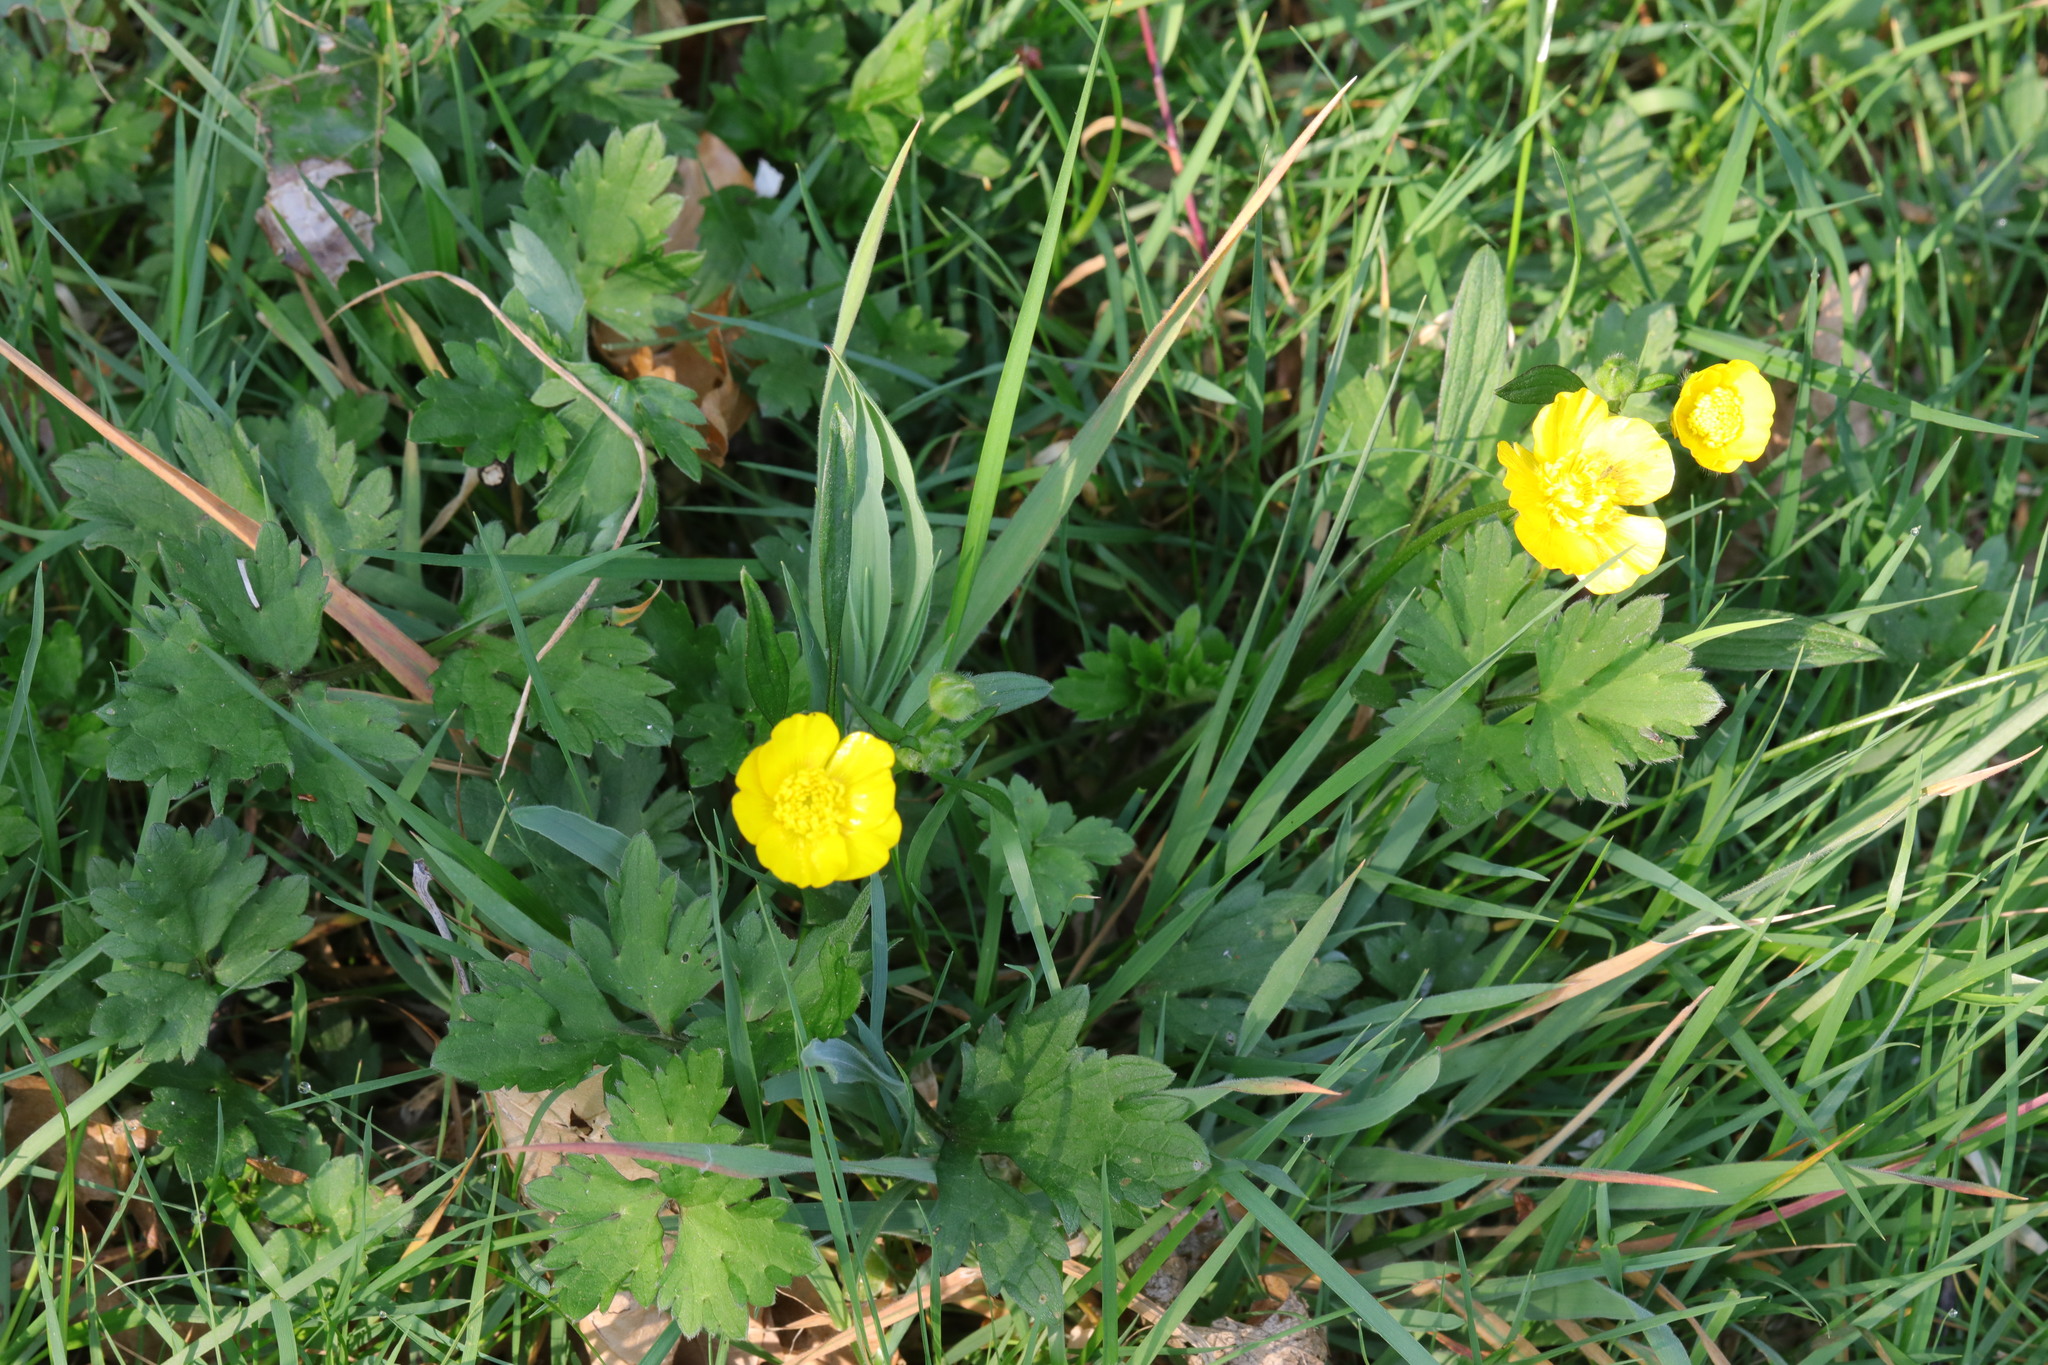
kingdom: Plantae
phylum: Tracheophyta
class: Magnoliopsida
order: Ranunculales
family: Ranunculaceae
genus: Ranunculus
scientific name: Ranunculus repens
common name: Creeping buttercup
